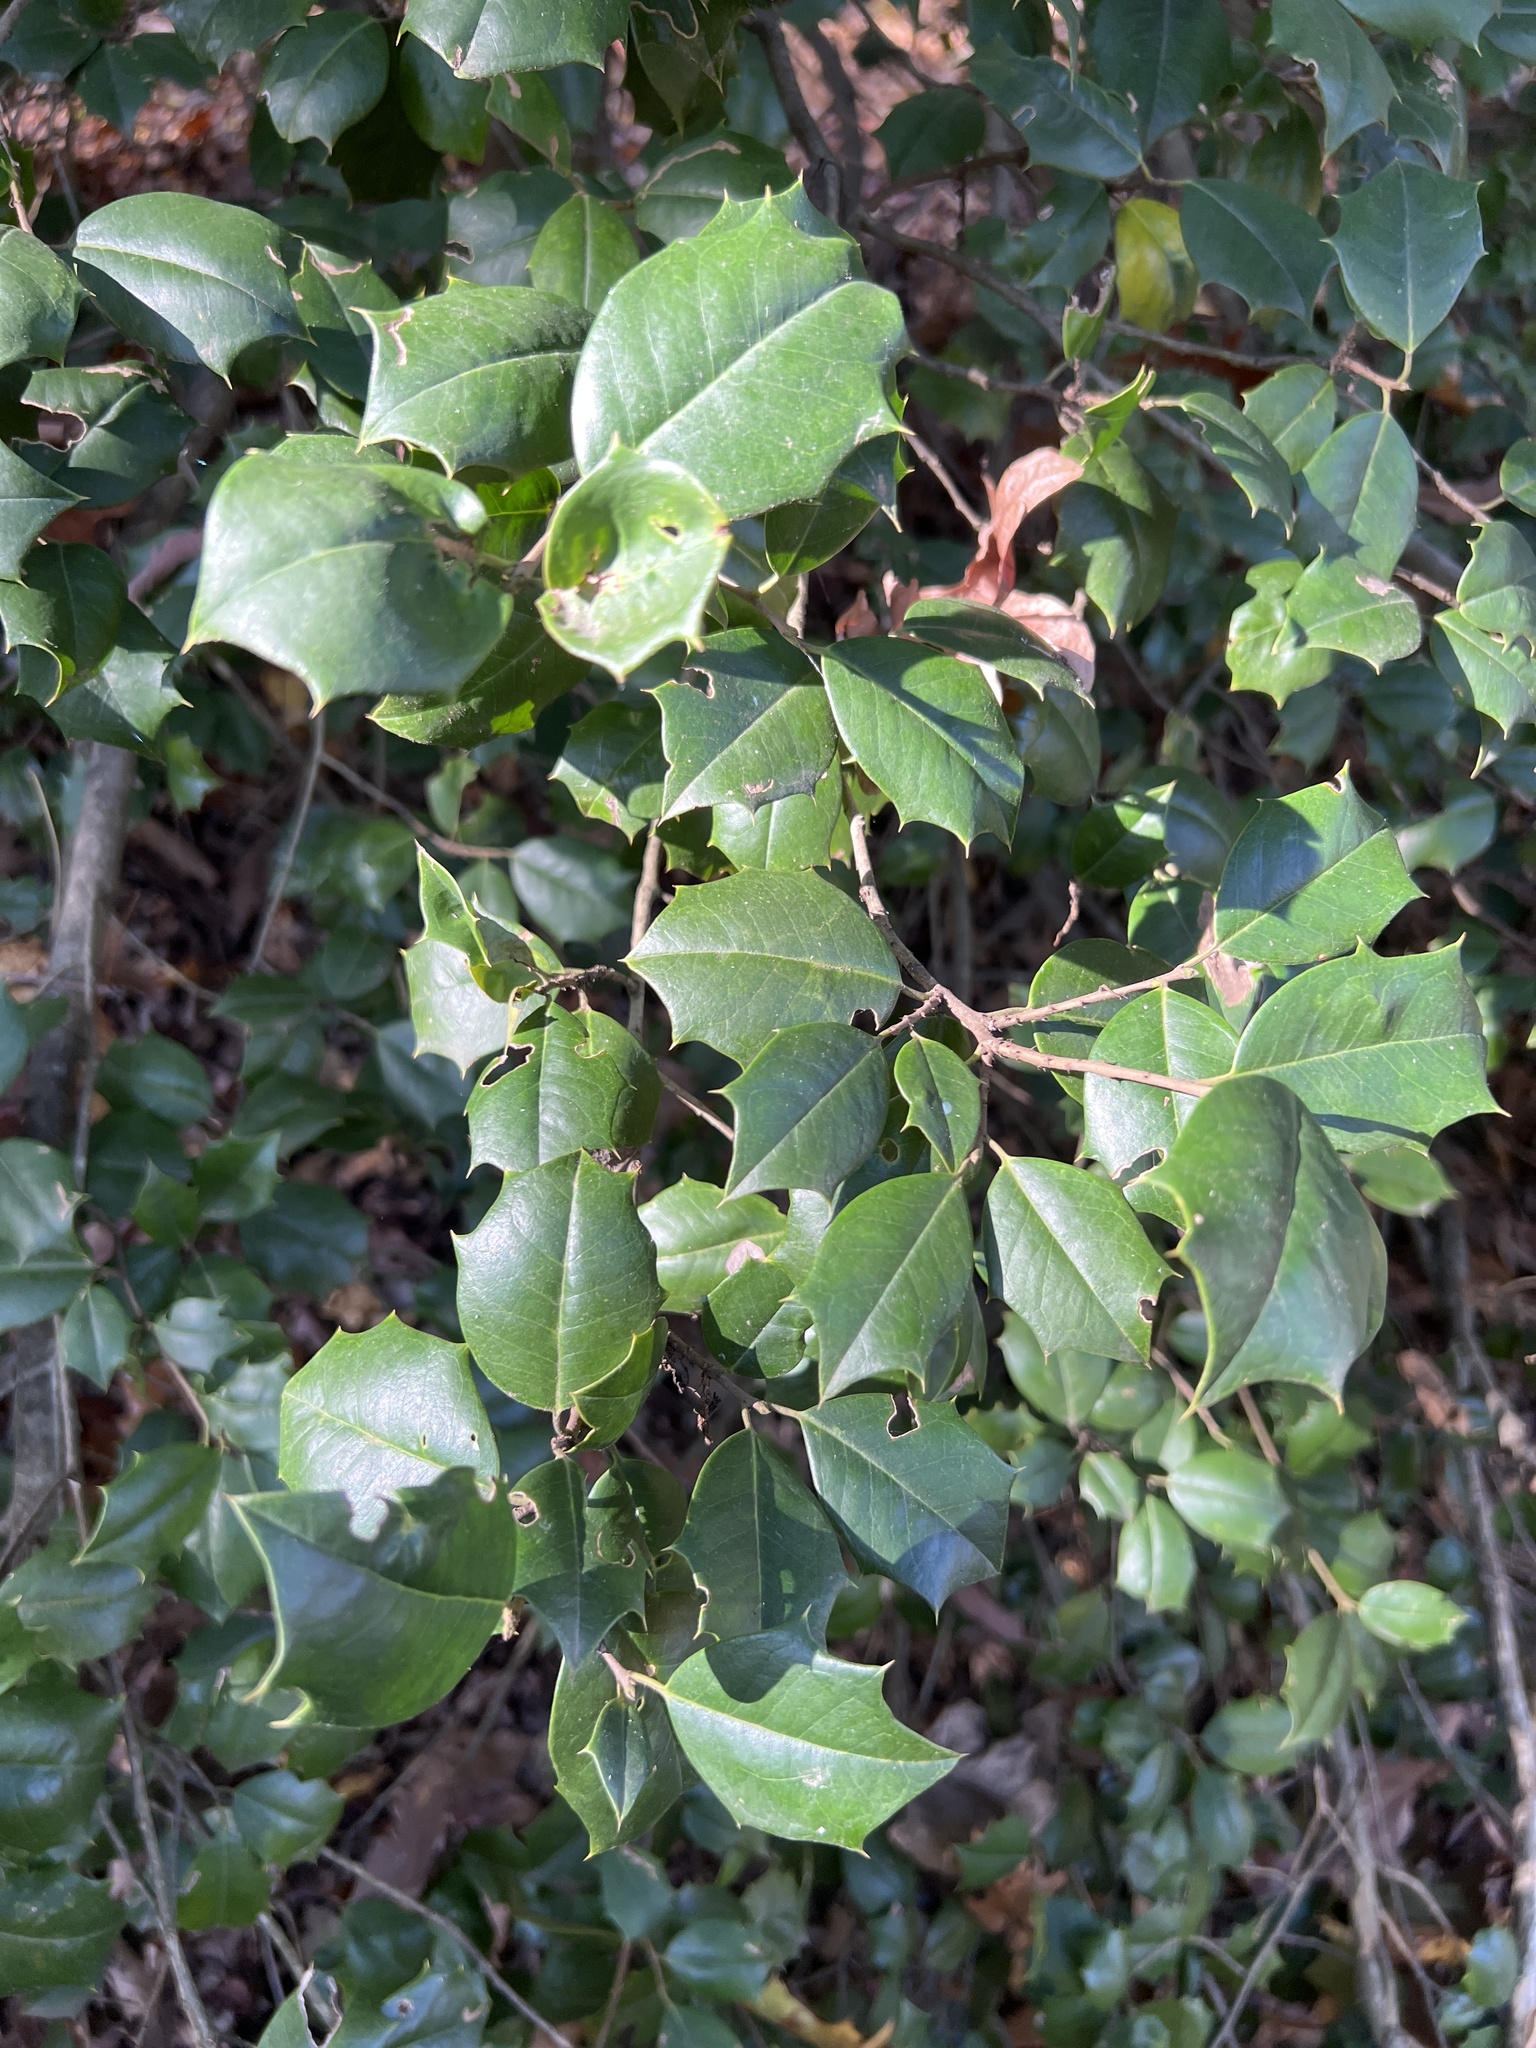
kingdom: Plantae
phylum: Tracheophyta
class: Magnoliopsida
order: Aquifoliales
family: Aquifoliaceae
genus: Ilex
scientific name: Ilex opaca
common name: American holly
